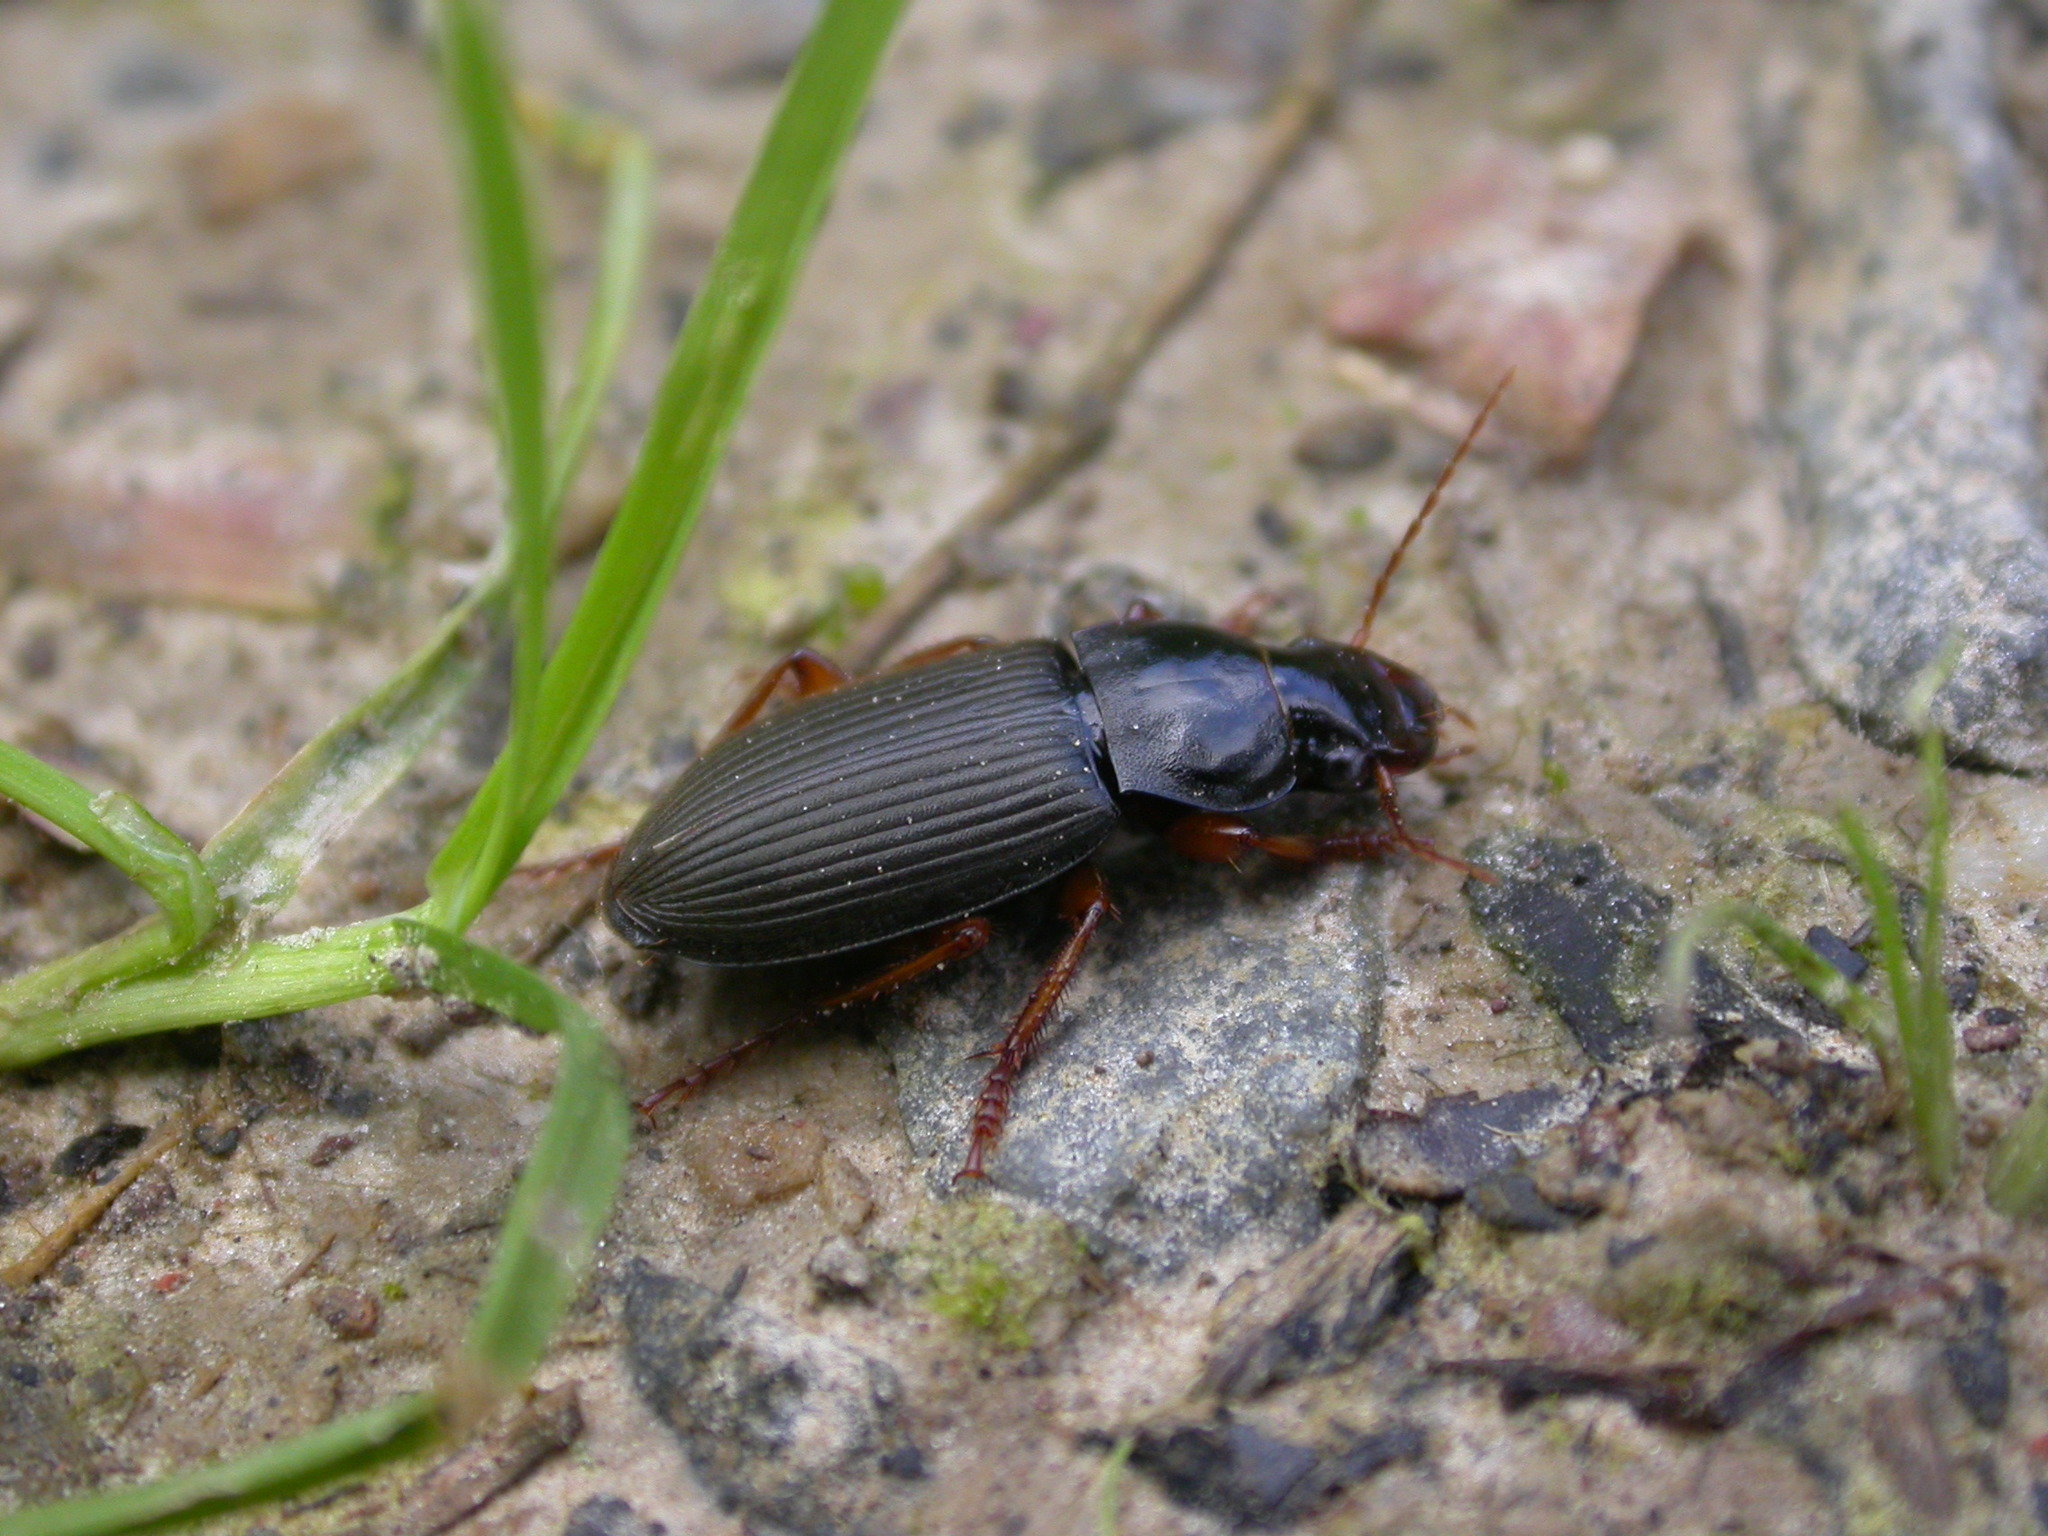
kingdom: Animalia
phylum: Arthropoda
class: Insecta
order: Coleoptera
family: Carabidae
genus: Harpalus
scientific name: Harpalus rufipes
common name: Strawberry harp ground beetle
